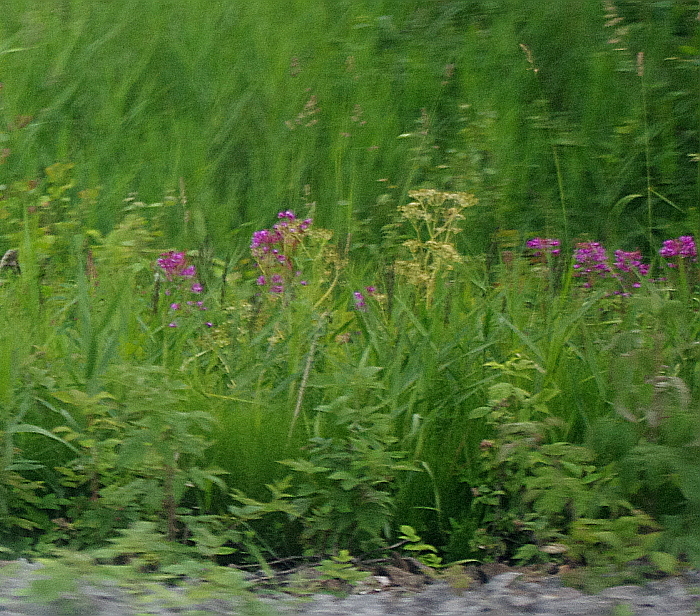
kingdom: Plantae
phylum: Tracheophyta
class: Magnoliopsida
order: Myrtales
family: Onagraceae
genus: Chamaenerion
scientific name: Chamaenerion angustifolium
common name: Fireweed
